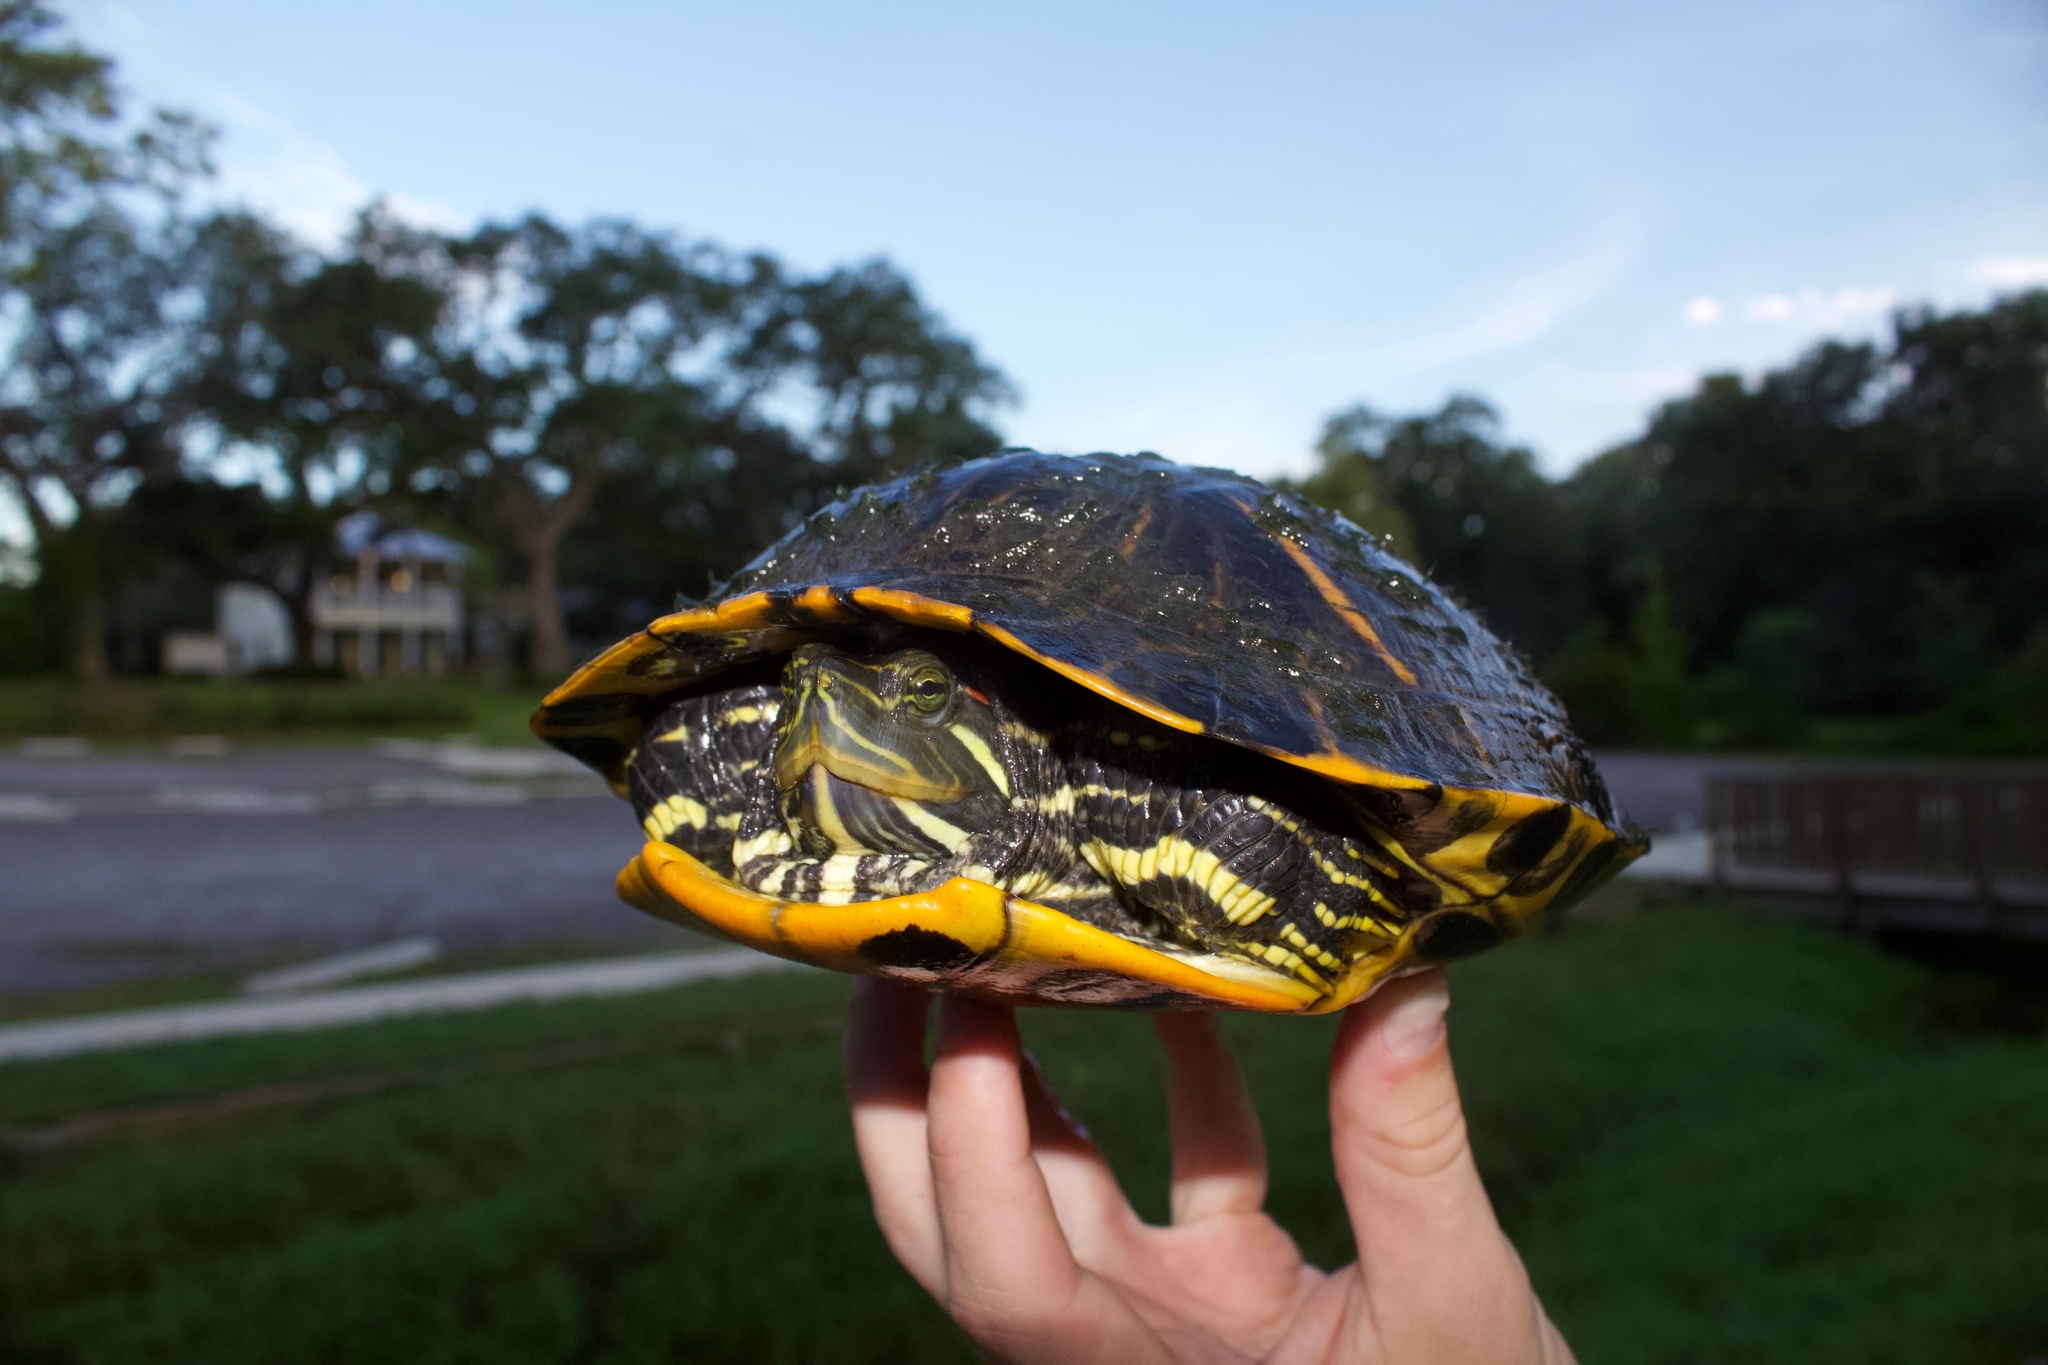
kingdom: Animalia
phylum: Chordata
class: Testudines
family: Emydidae
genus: Trachemys
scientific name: Trachemys scripta
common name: Slider
